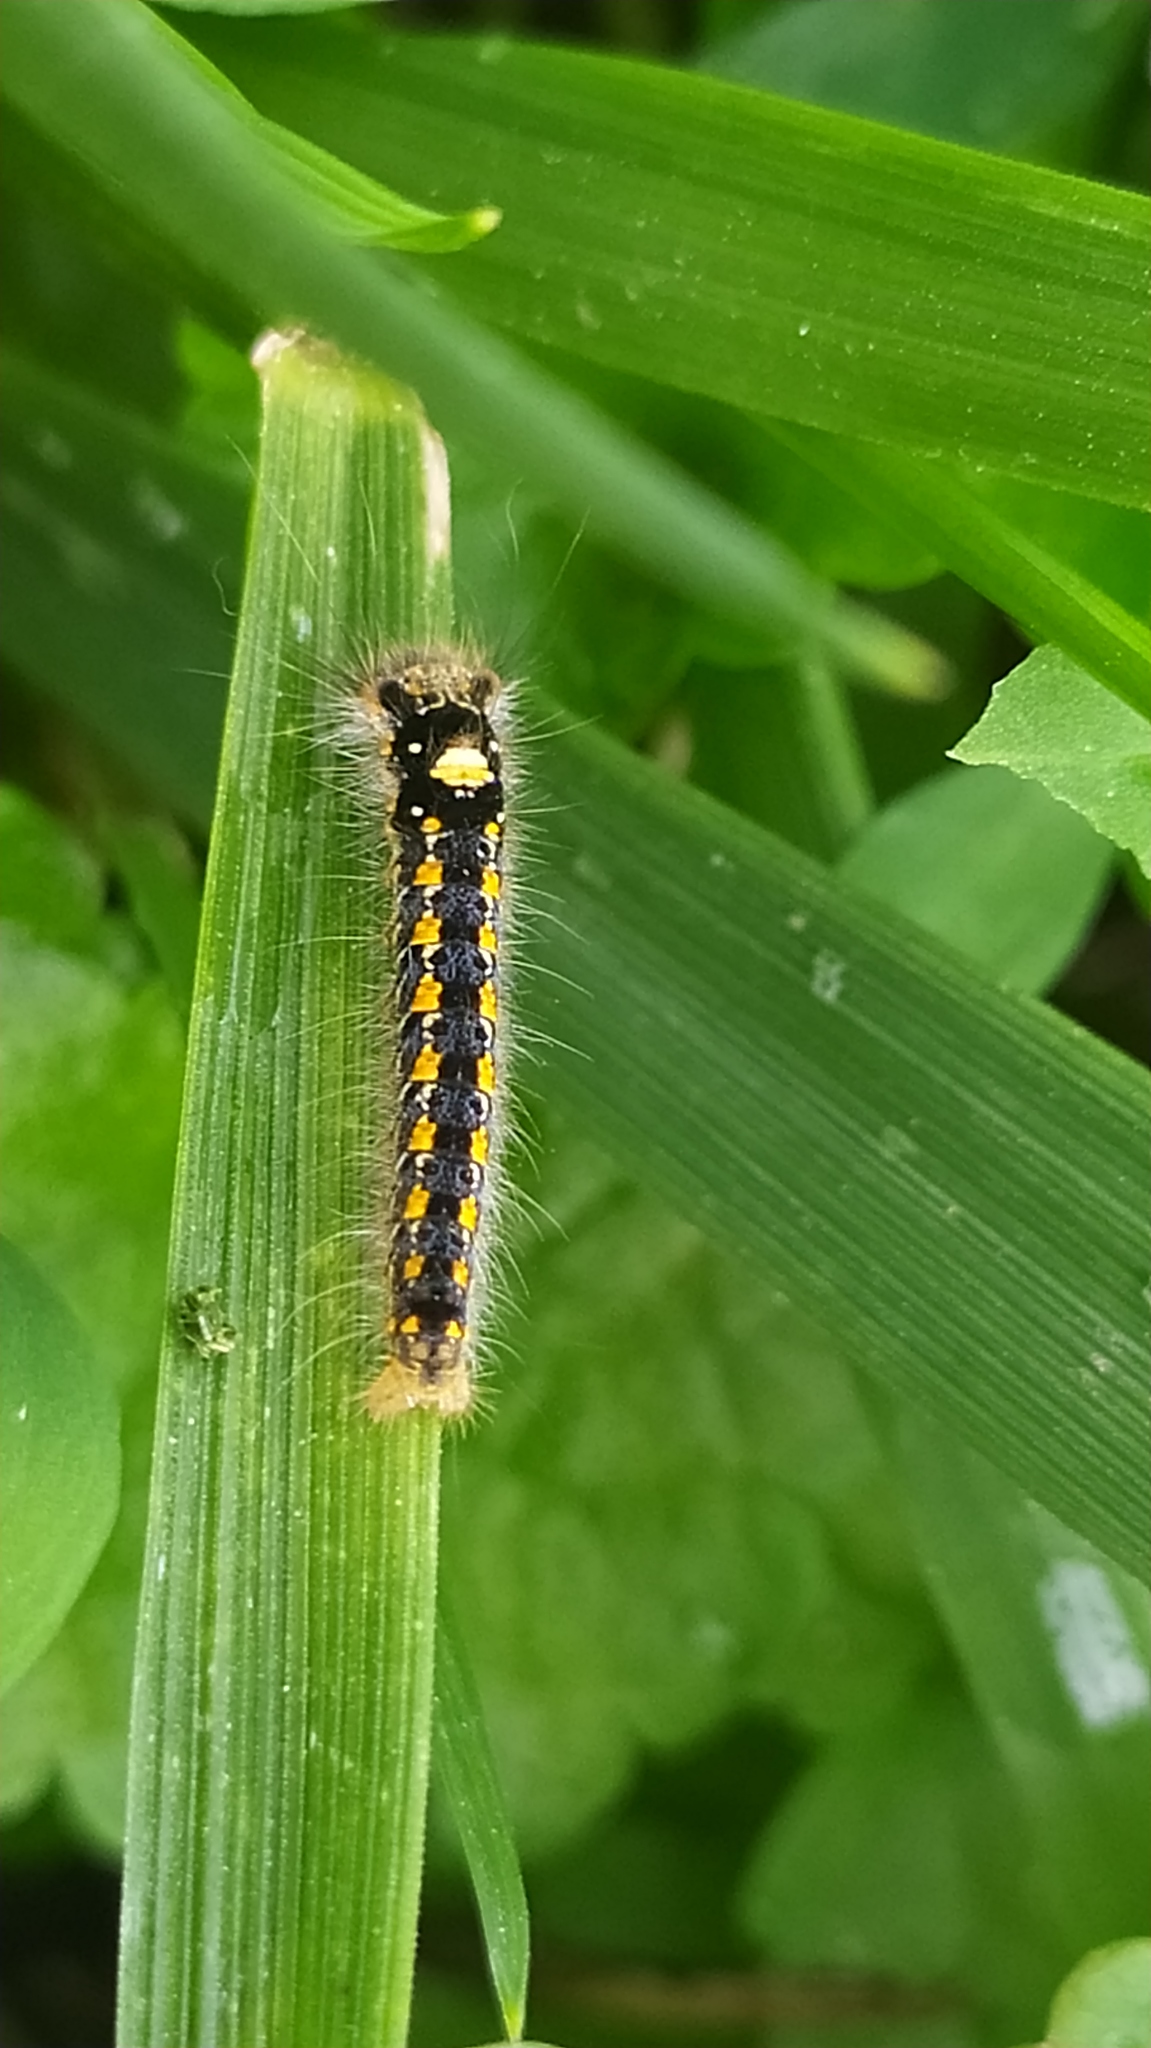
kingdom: Animalia
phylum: Arthropoda
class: Insecta
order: Lepidoptera
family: Lasiocampidae
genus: Euthrix
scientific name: Euthrix potatoria
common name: Drinker
